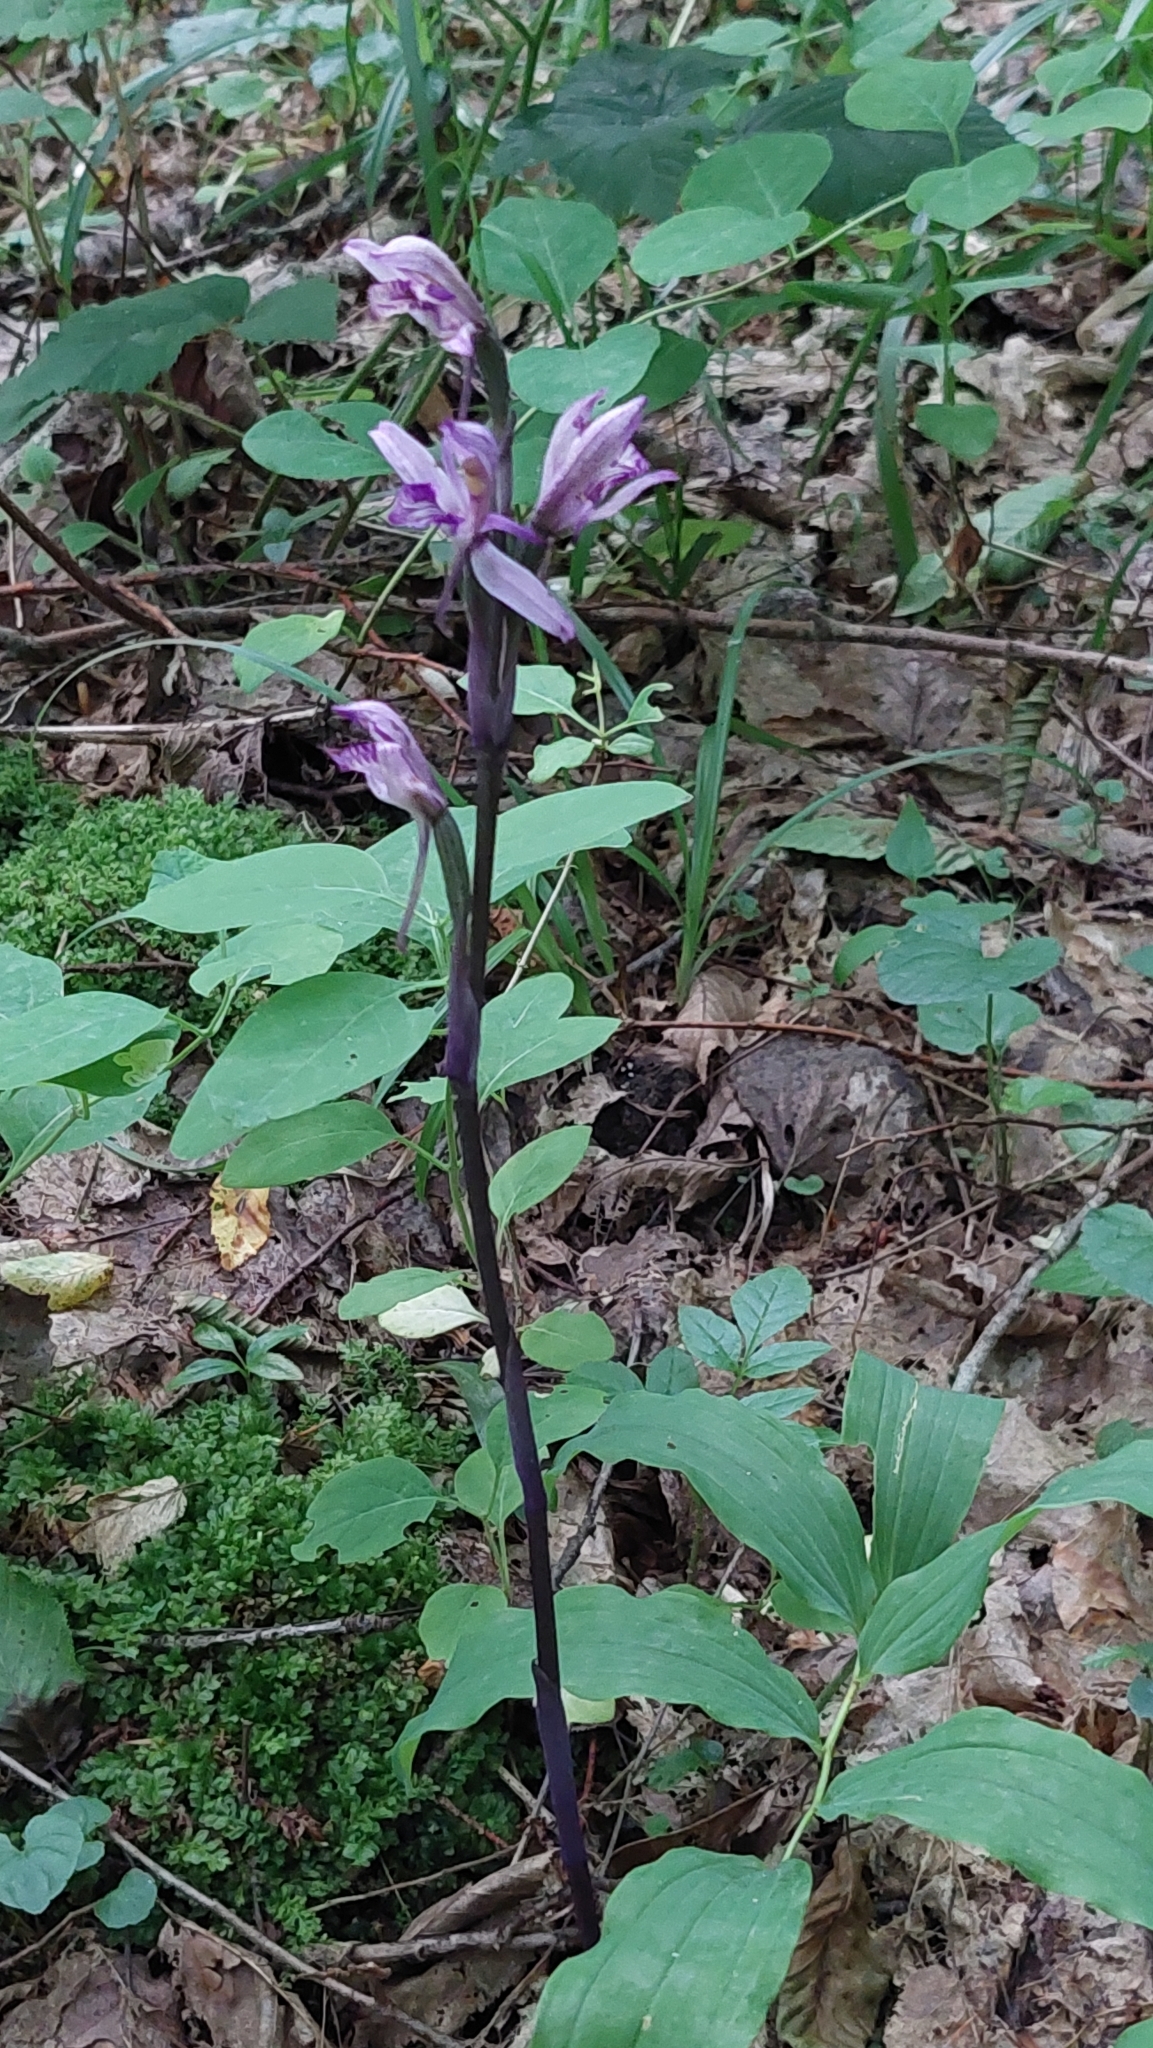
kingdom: Plantae
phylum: Tracheophyta
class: Liliopsida
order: Asparagales
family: Orchidaceae
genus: Limodorum
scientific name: Limodorum abortivum
